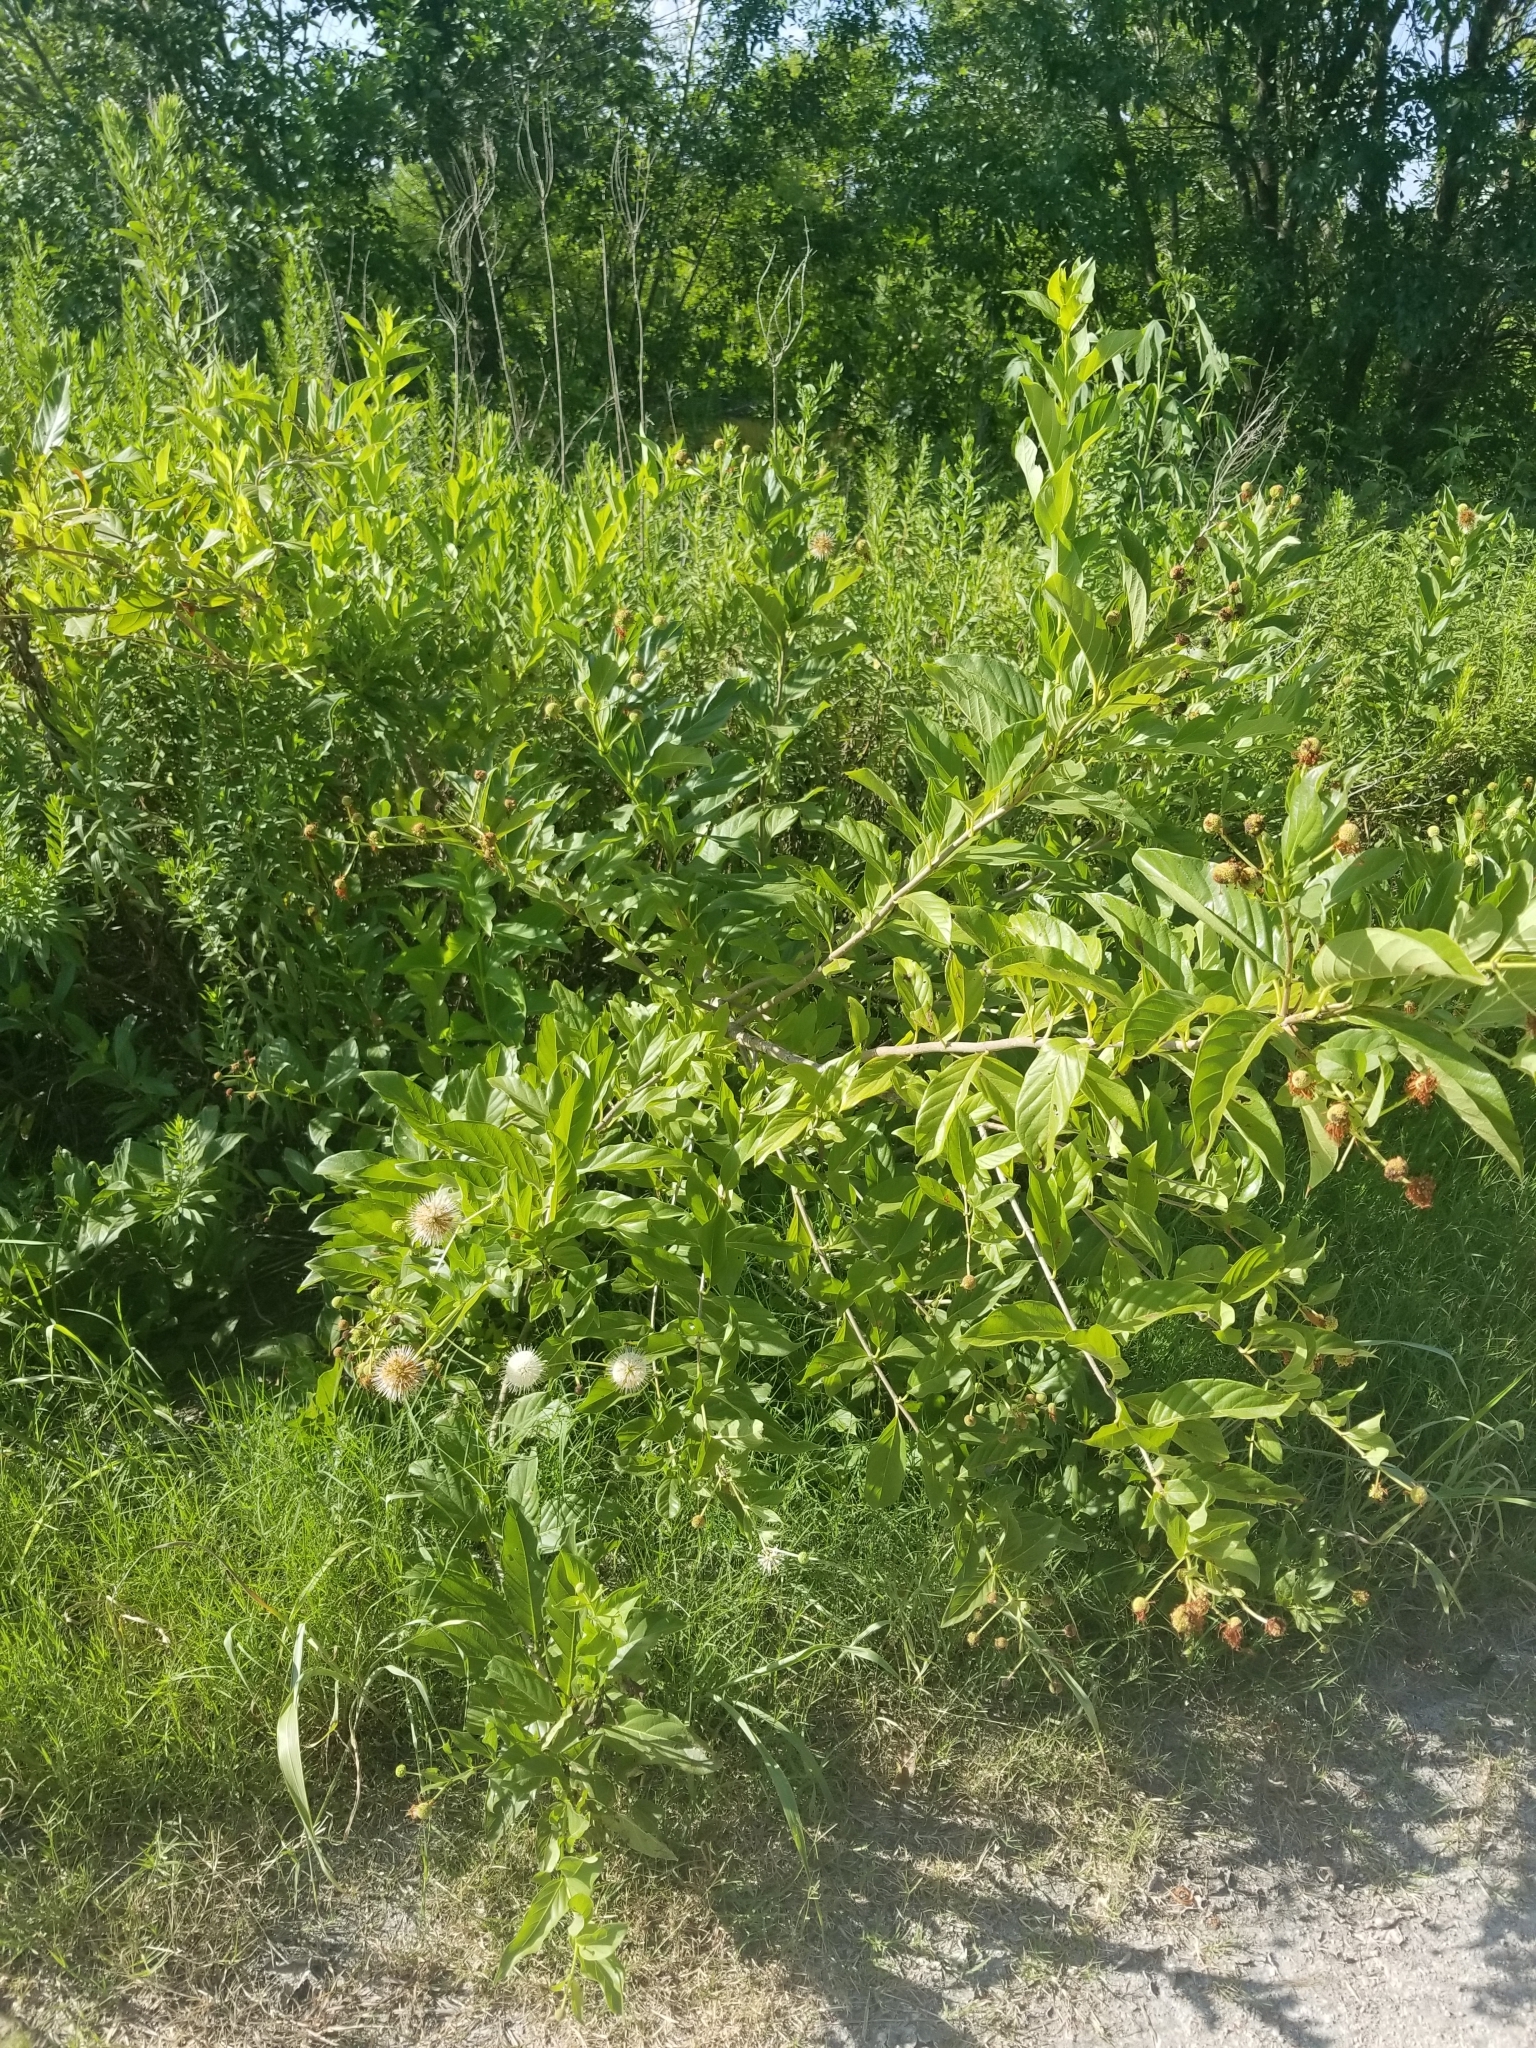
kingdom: Plantae
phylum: Tracheophyta
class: Magnoliopsida
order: Gentianales
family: Rubiaceae
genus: Cephalanthus
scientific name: Cephalanthus occidentalis
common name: Button-willow
